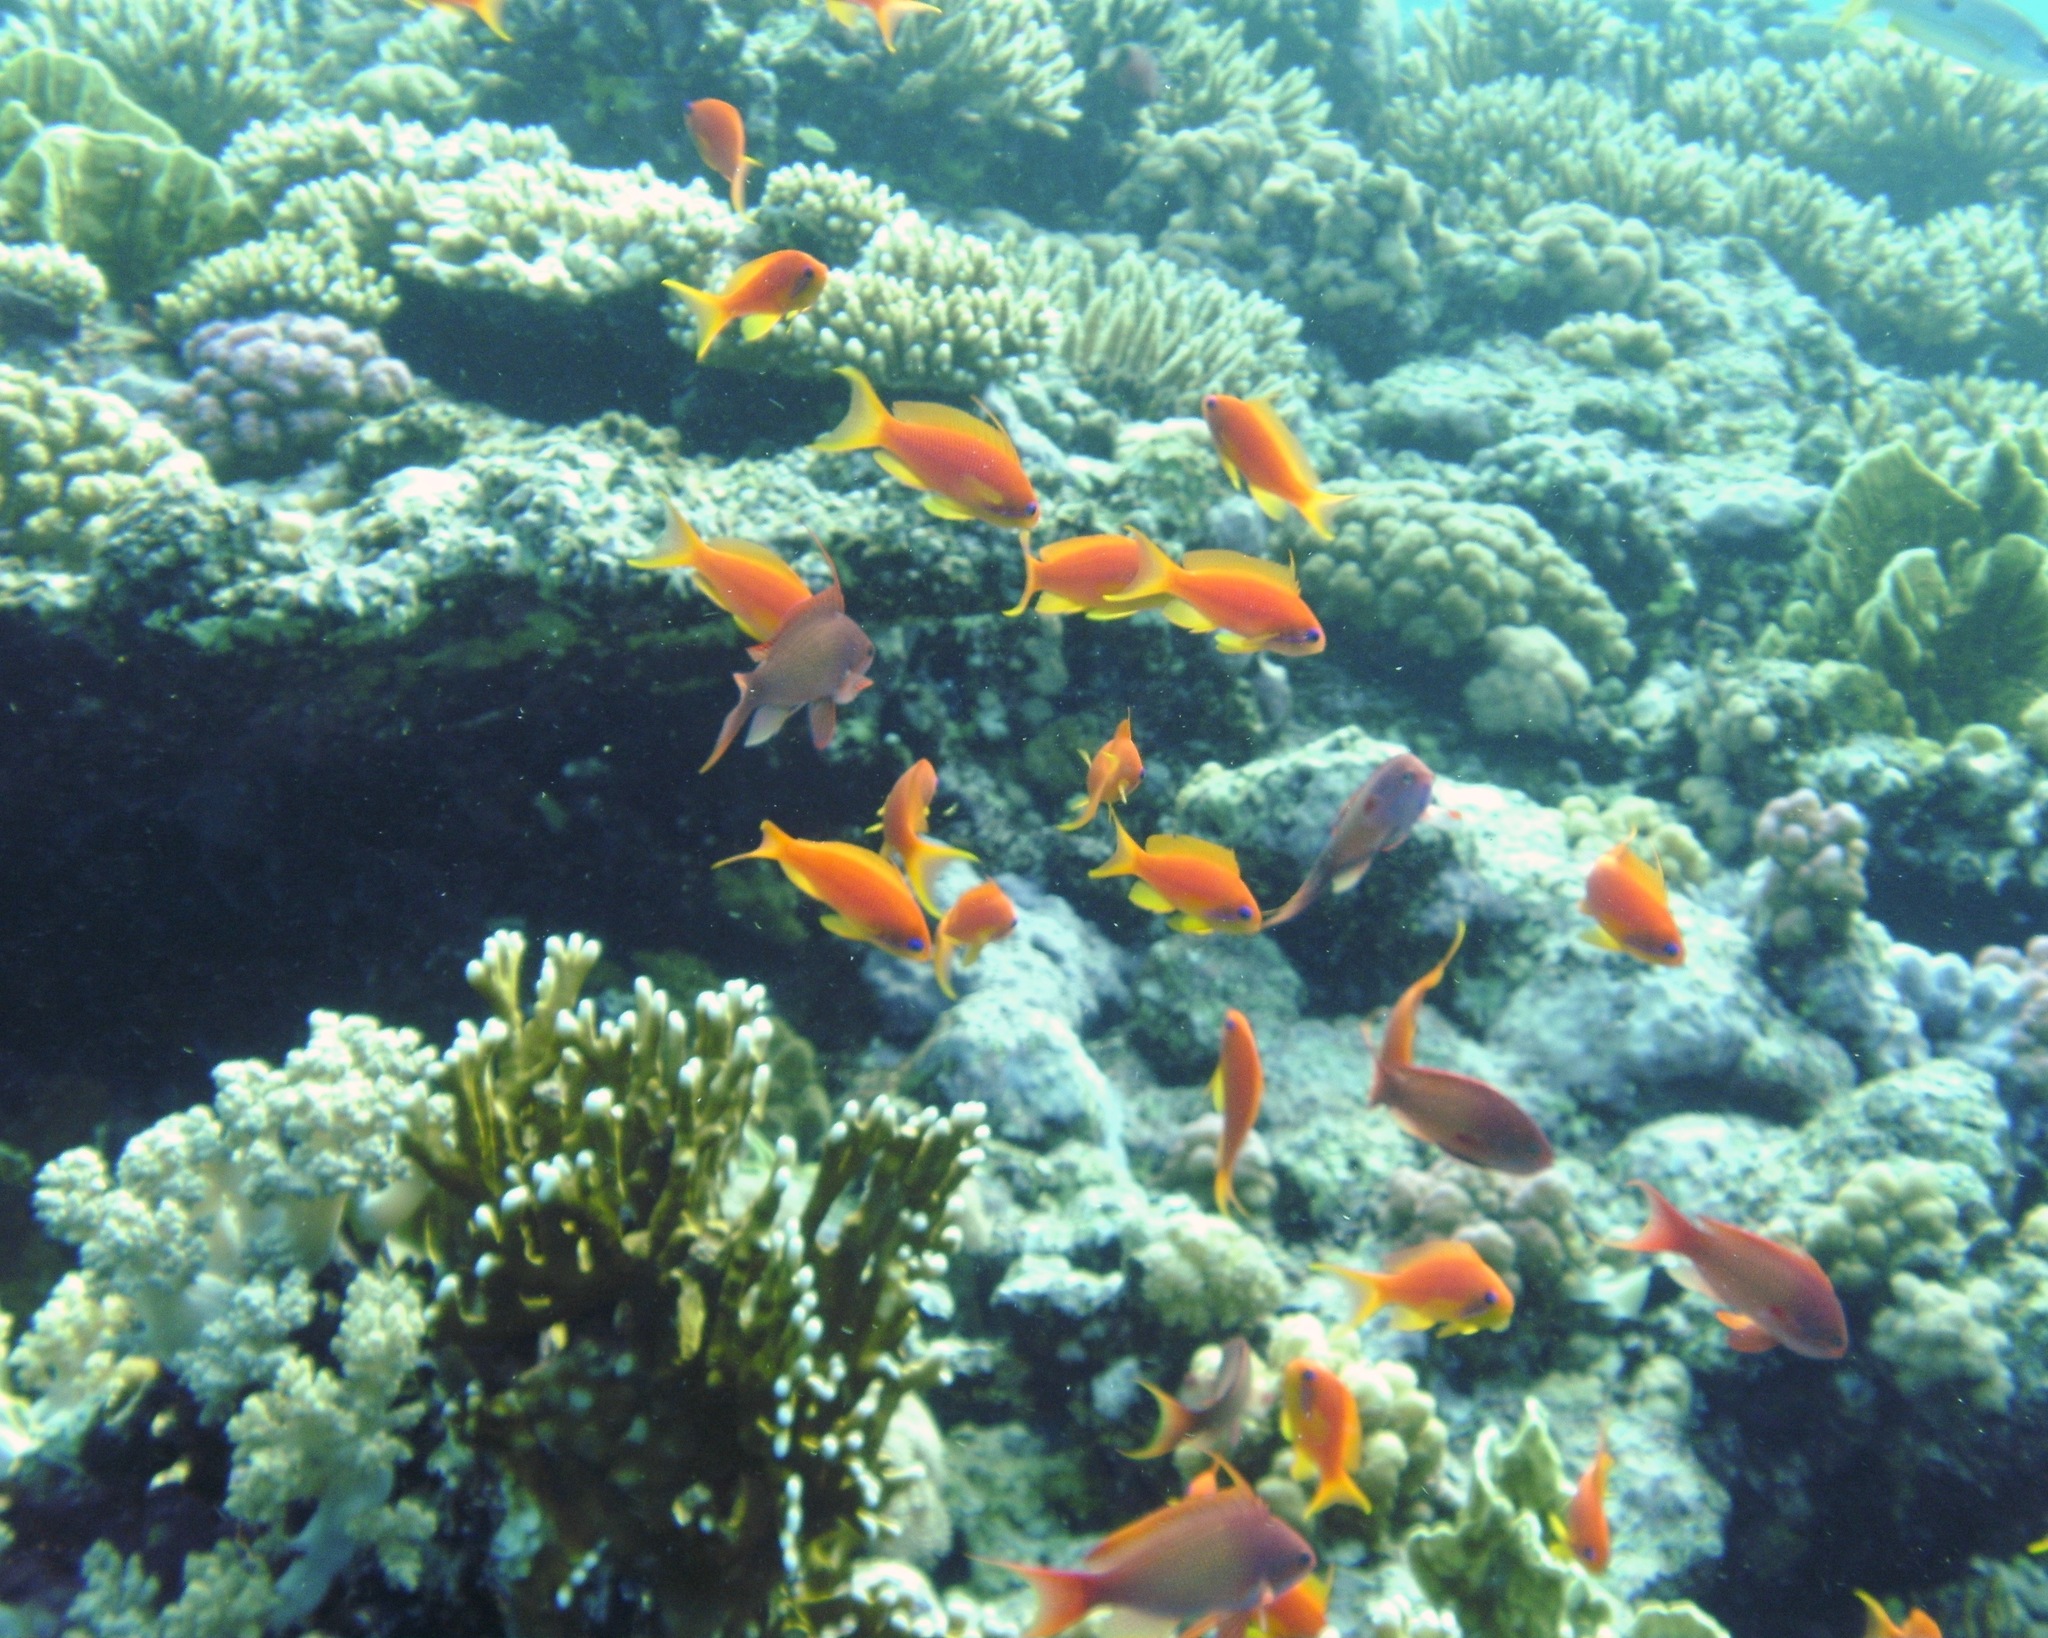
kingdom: Animalia
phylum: Chordata
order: Perciformes
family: Serranidae
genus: Pseudanthias
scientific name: Pseudanthias squamipinnis
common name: Scalefin anthias
